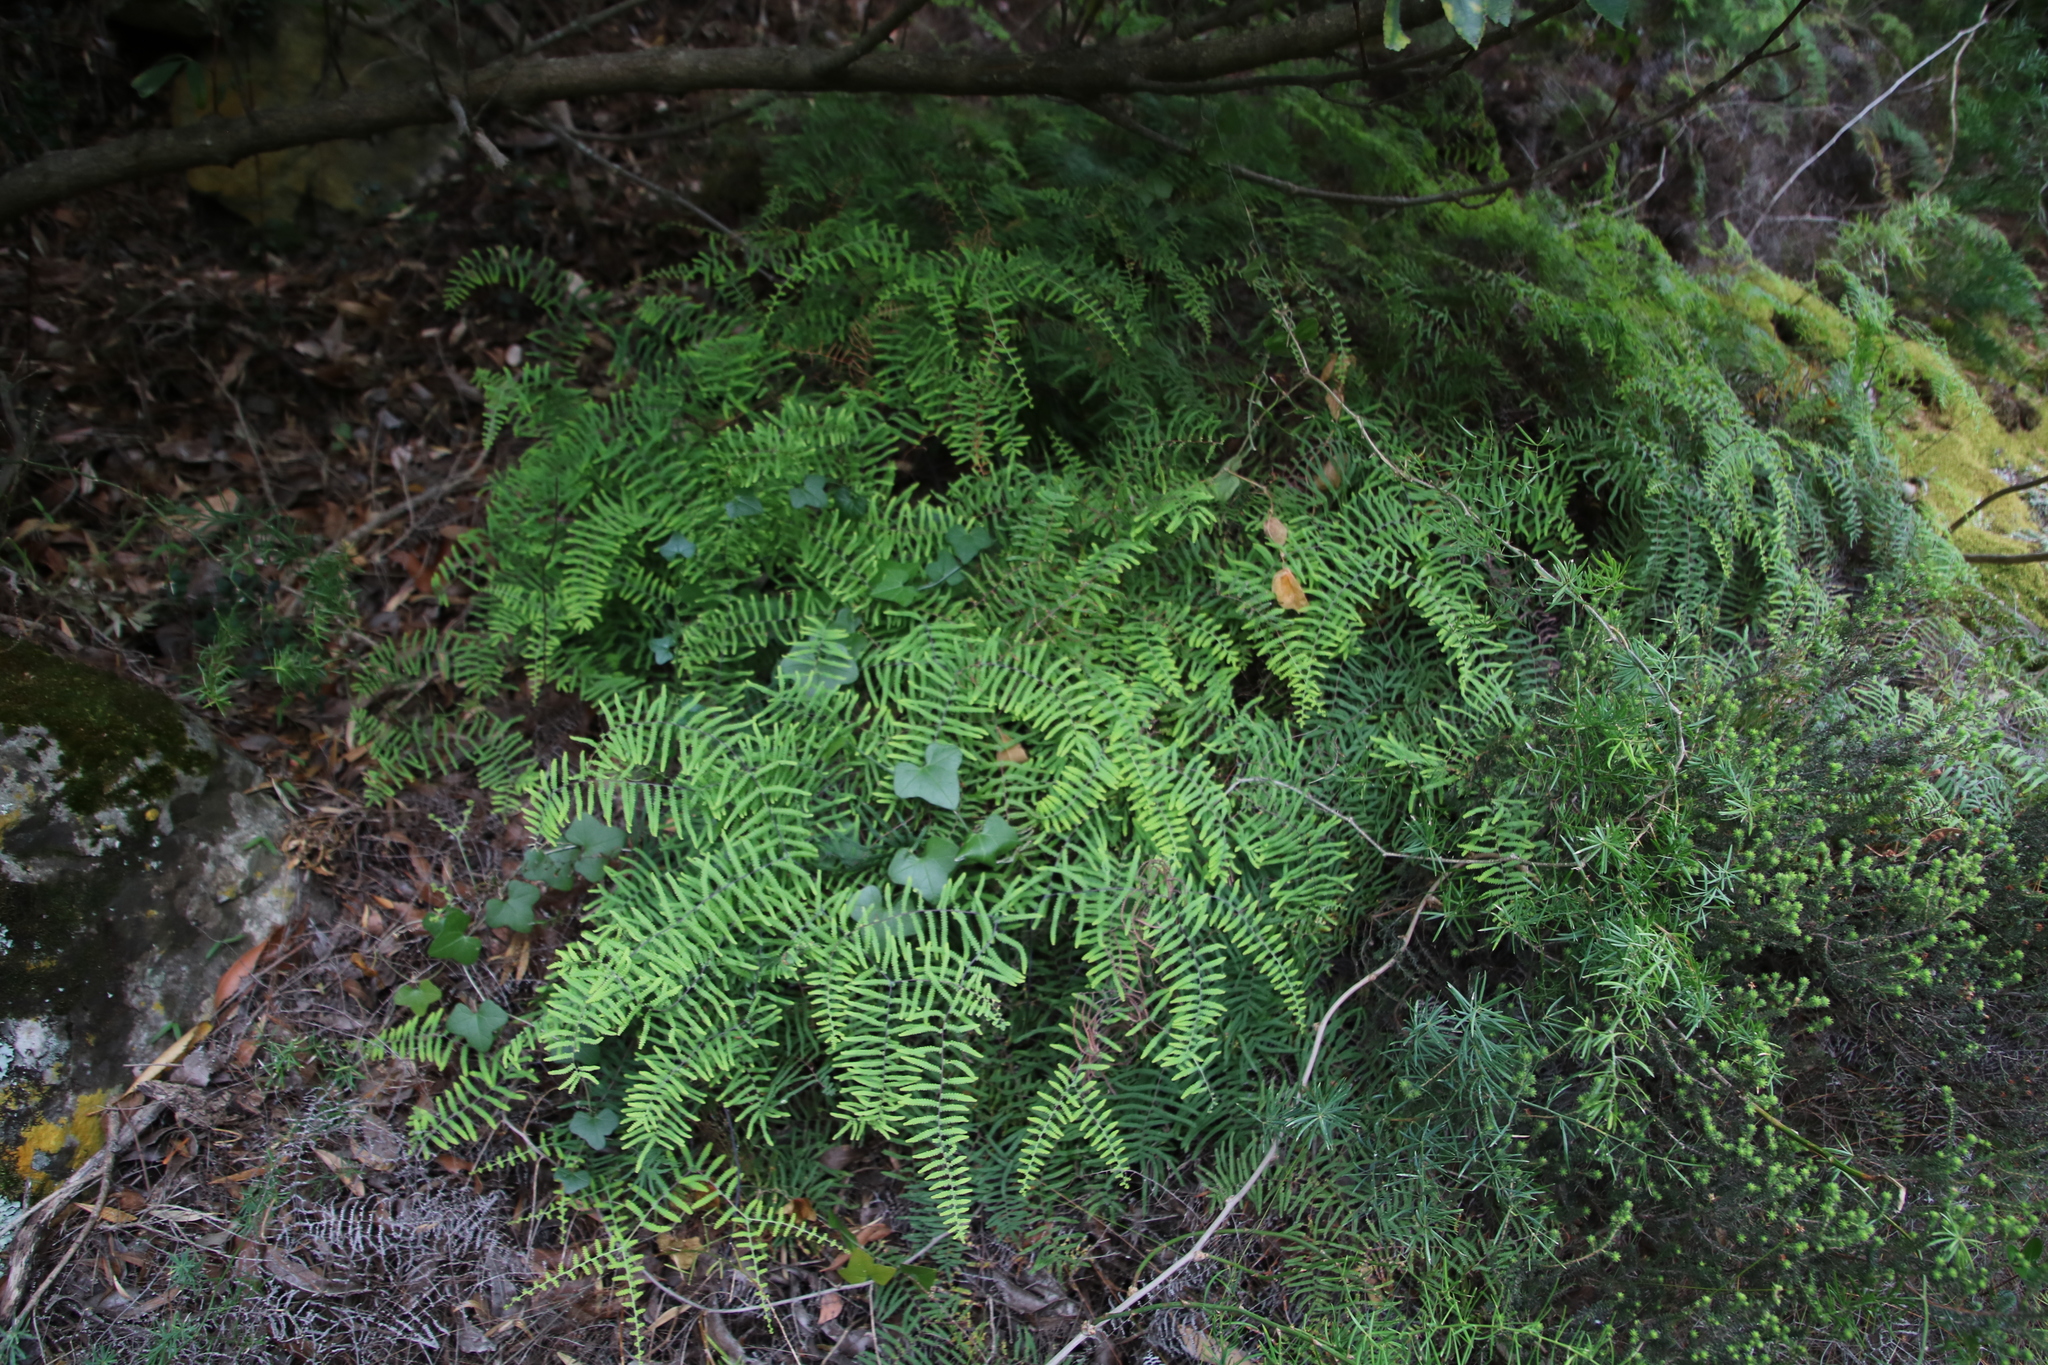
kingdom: Plantae
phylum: Tracheophyta
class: Polypodiopsida
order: Gleicheniales
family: Gleicheniaceae
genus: Gleichenia
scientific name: Gleichenia polypodioides
